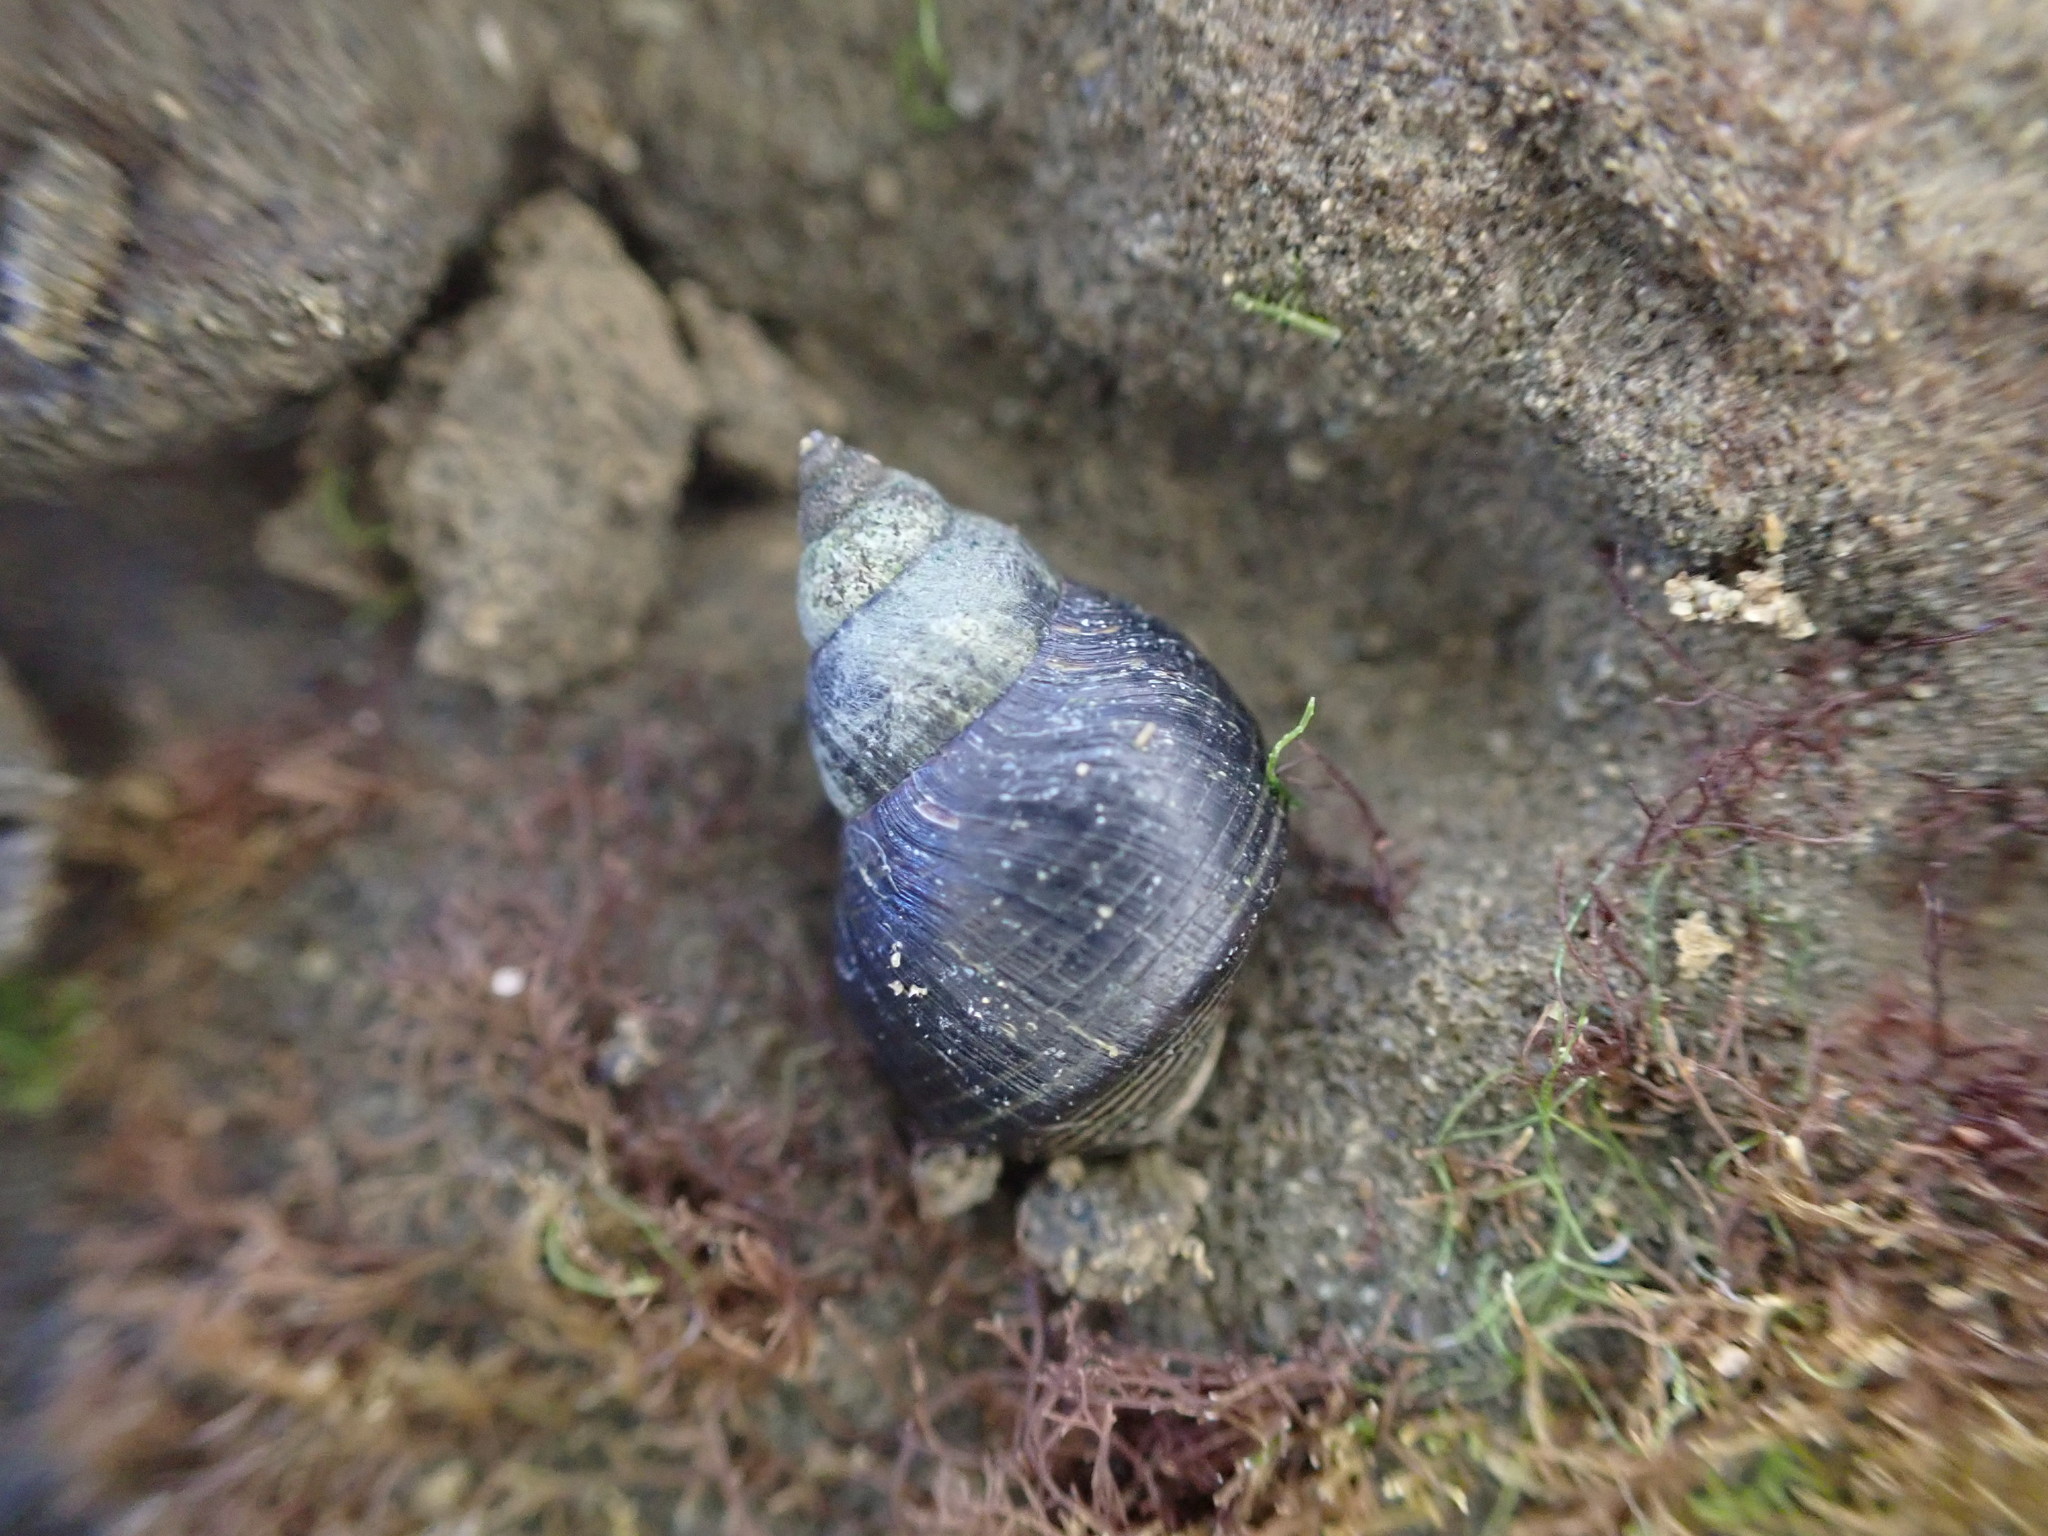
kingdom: Animalia
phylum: Mollusca
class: Gastropoda
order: Littorinimorpha
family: Littorinidae
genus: Austrolittorina
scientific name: Austrolittorina cincta
